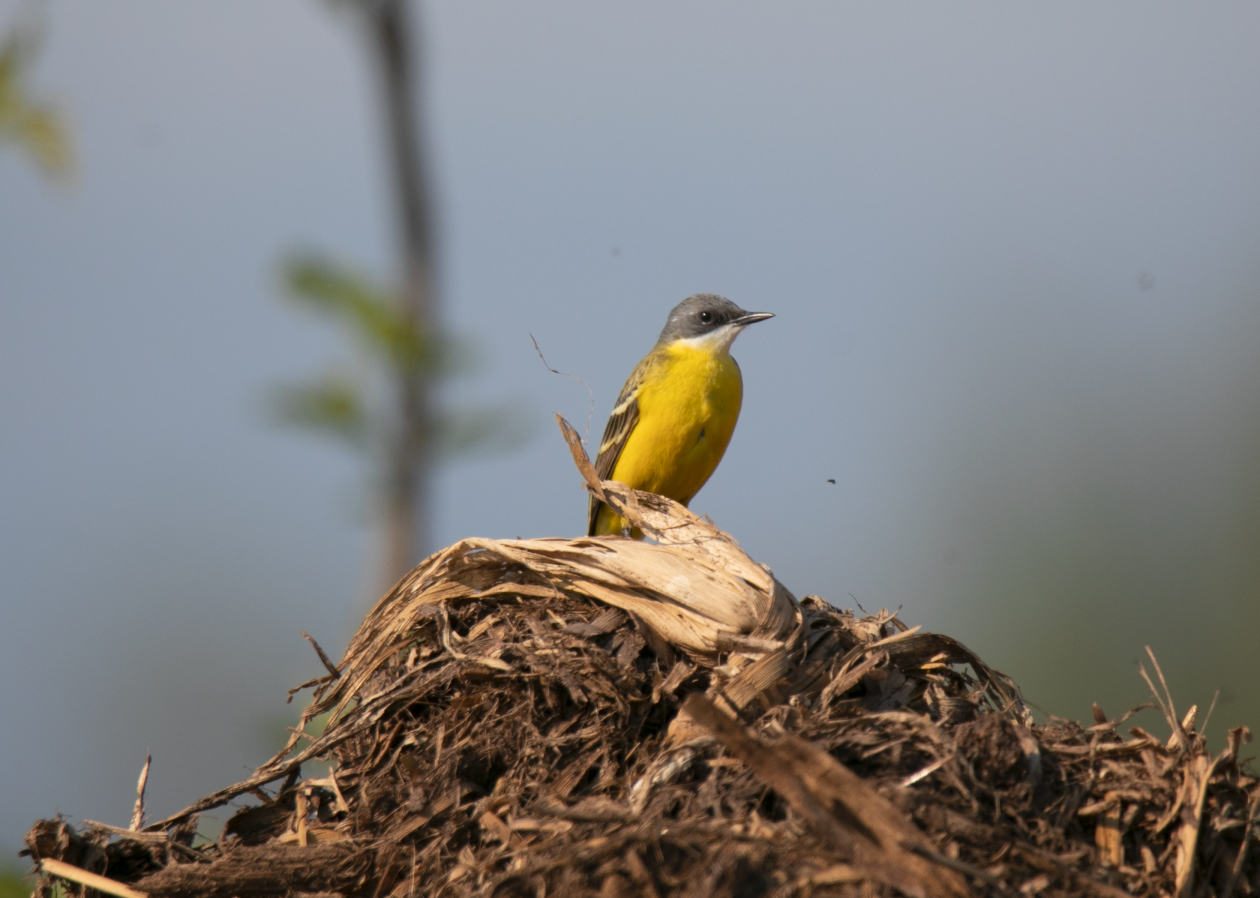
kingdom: Animalia
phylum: Chordata
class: Aves
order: Passeriformes
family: Motacillidae
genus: Motacilla
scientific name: Motacilla flava
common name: Western yellow wagtail
